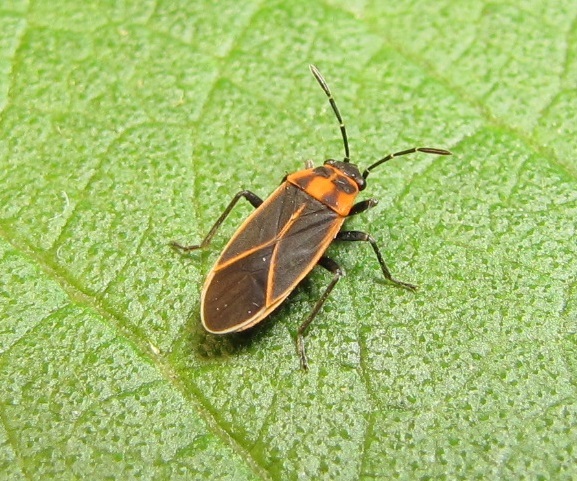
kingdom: Animalia
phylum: Arthropoda
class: Insecta
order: Hemiptera
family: Lygaeidae
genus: Ochrimnus
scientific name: Ochrimnus lineoloides
